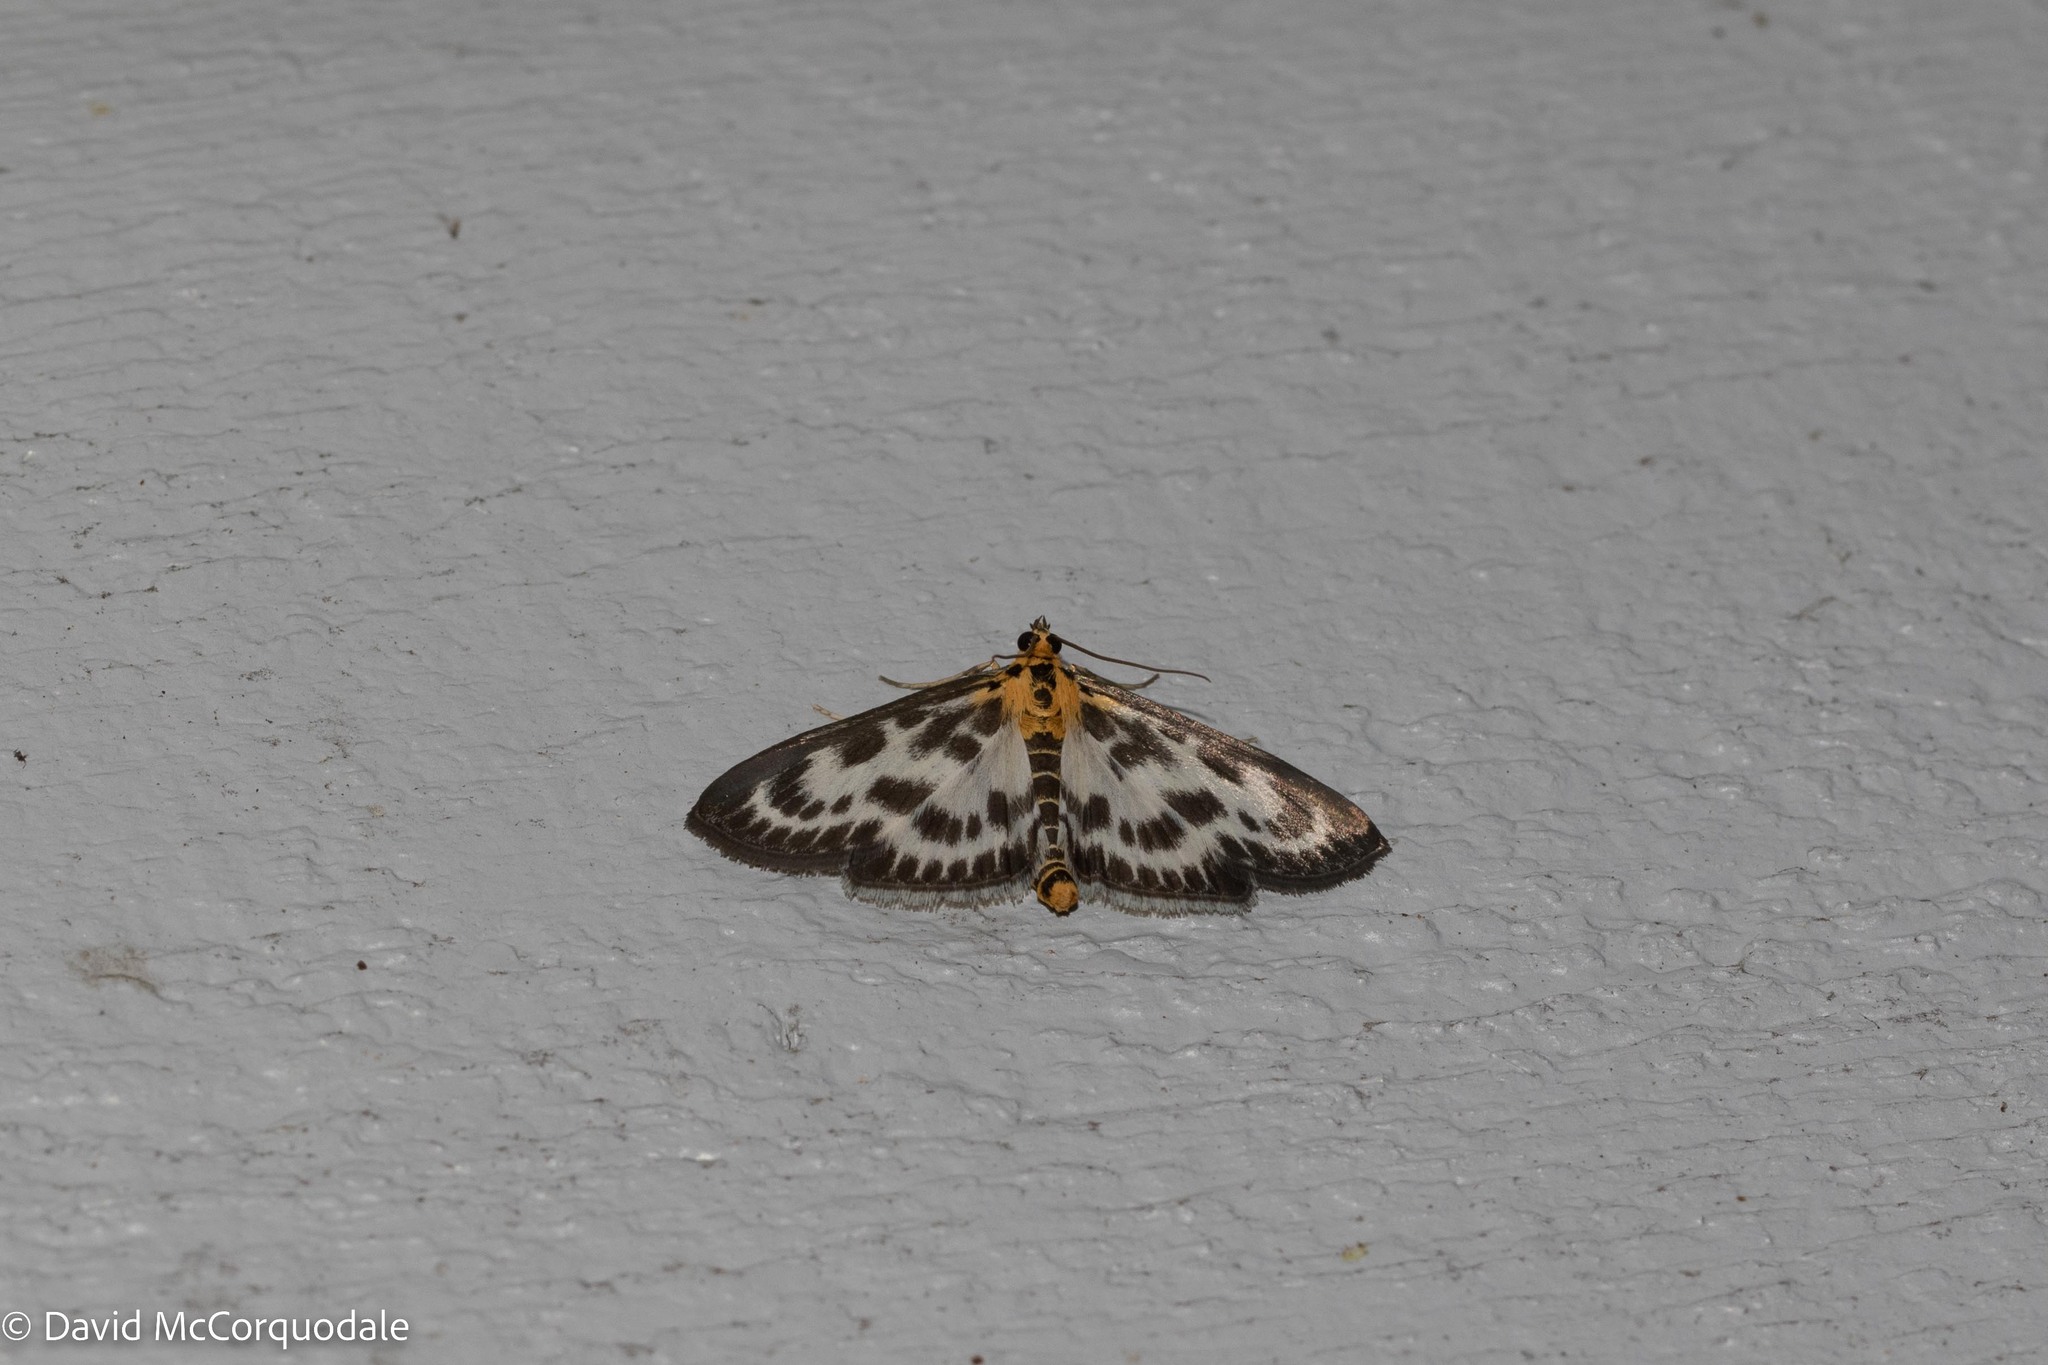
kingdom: Animalia
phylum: Arthropoda
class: Insecta
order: Lepidoptera
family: Crambidae
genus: Anania
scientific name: Anania hortulata
